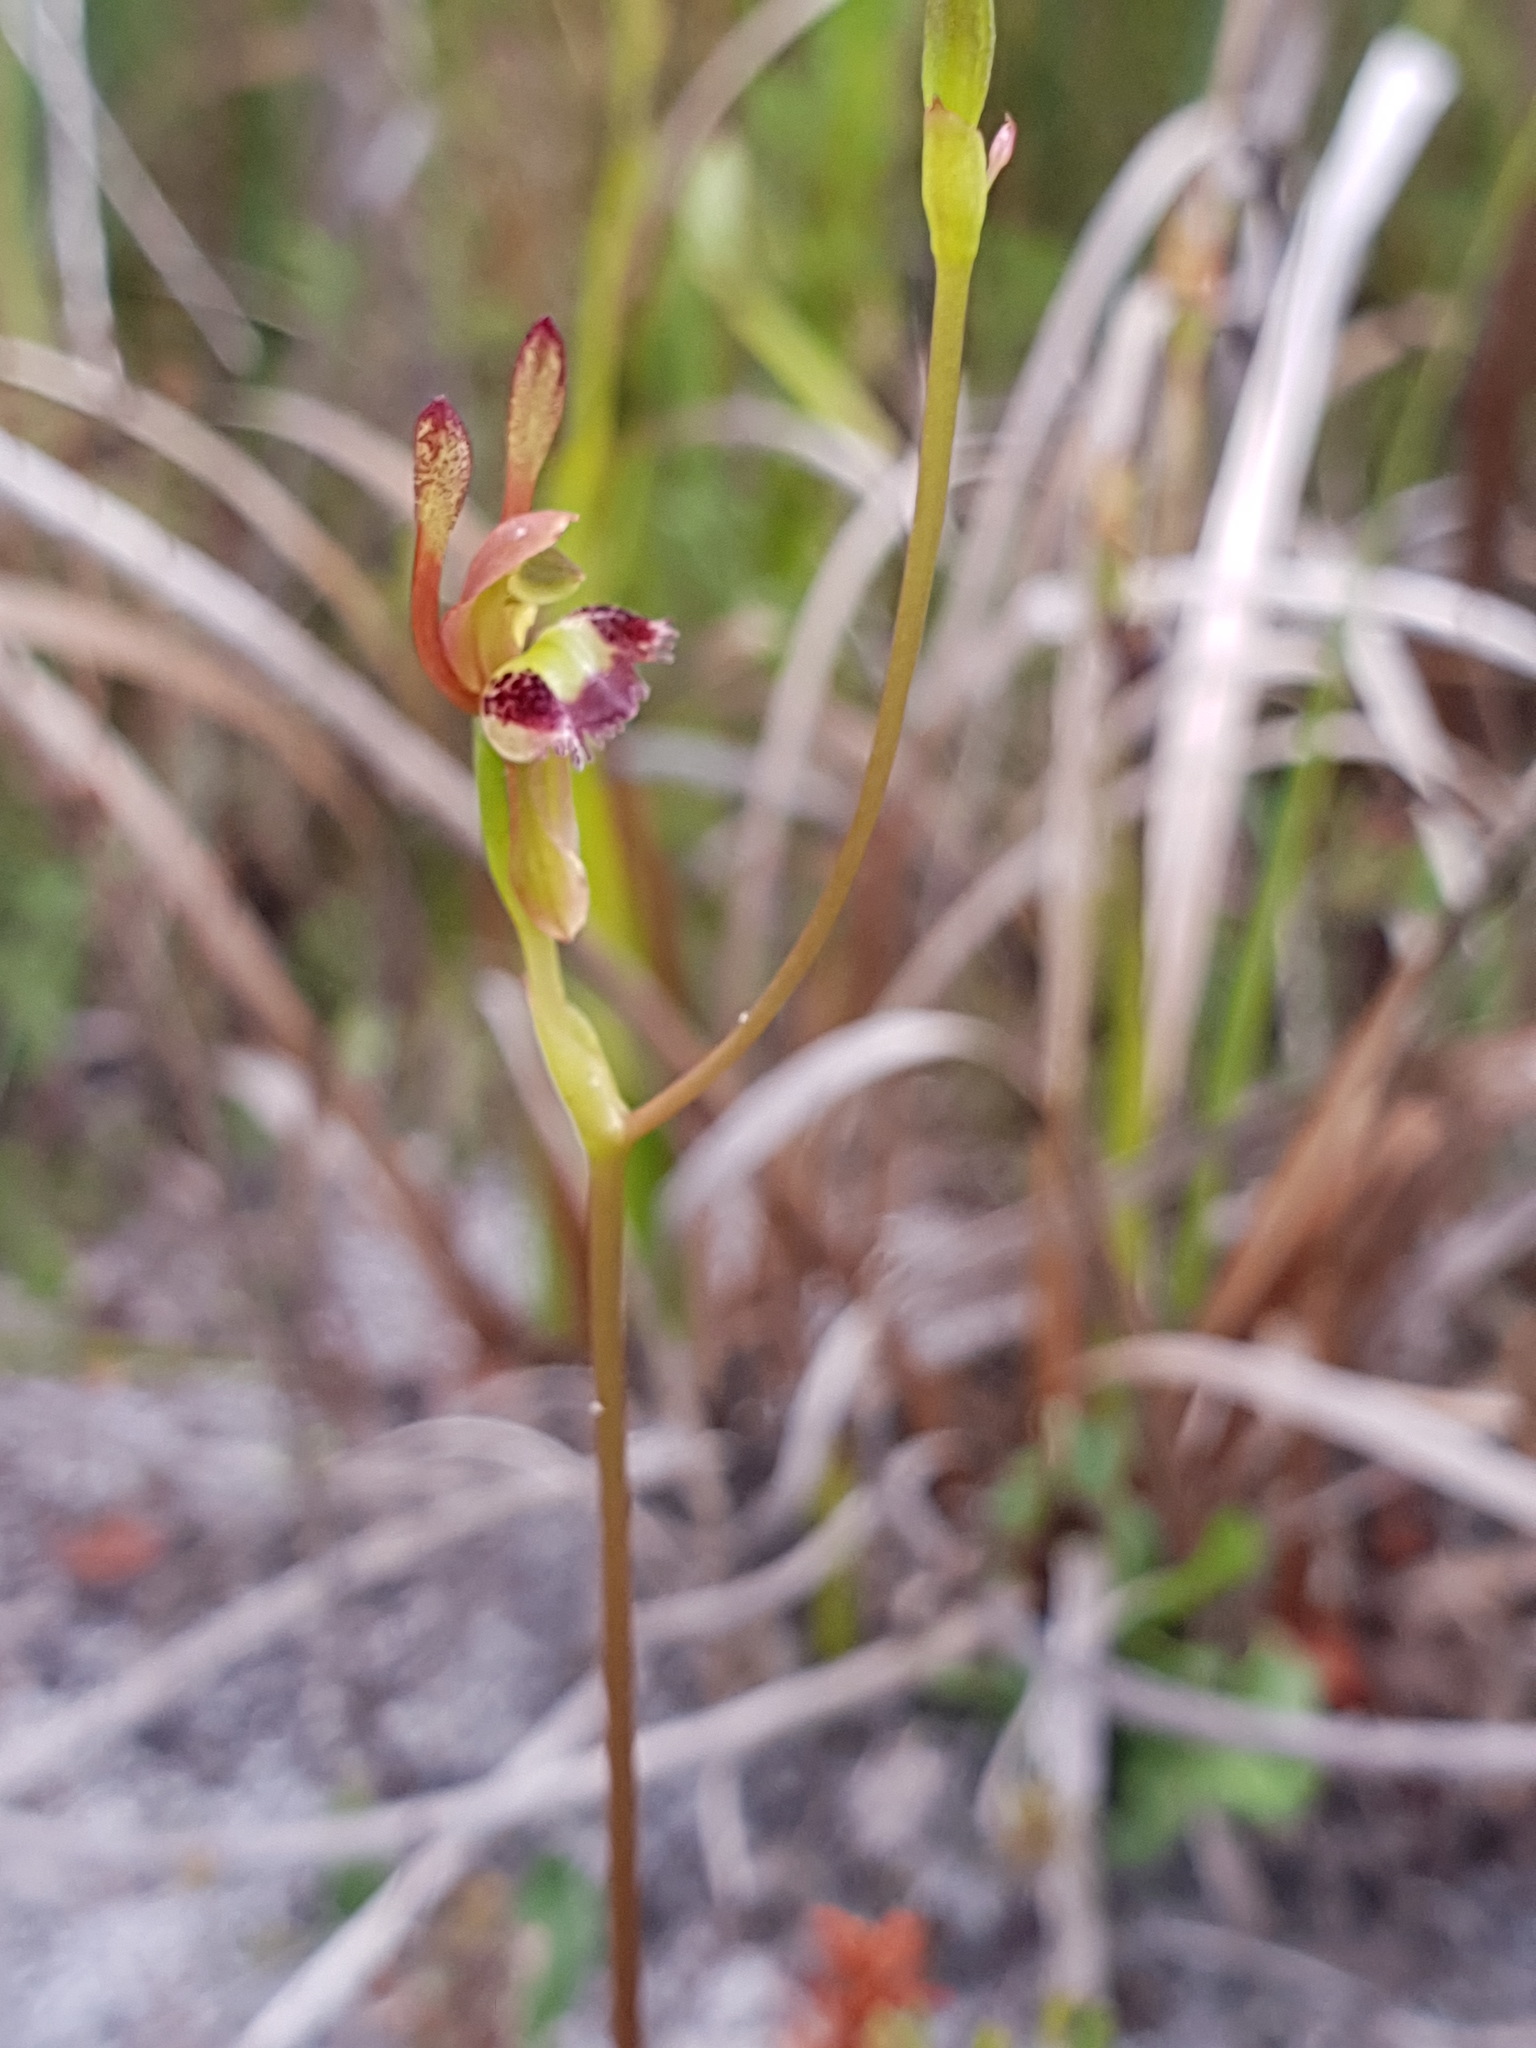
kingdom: Plantae
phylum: Tracheophyta
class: Liliopsida
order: Asparagales
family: Orchidaceae
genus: Leporella
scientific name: Leporella fimbriata
